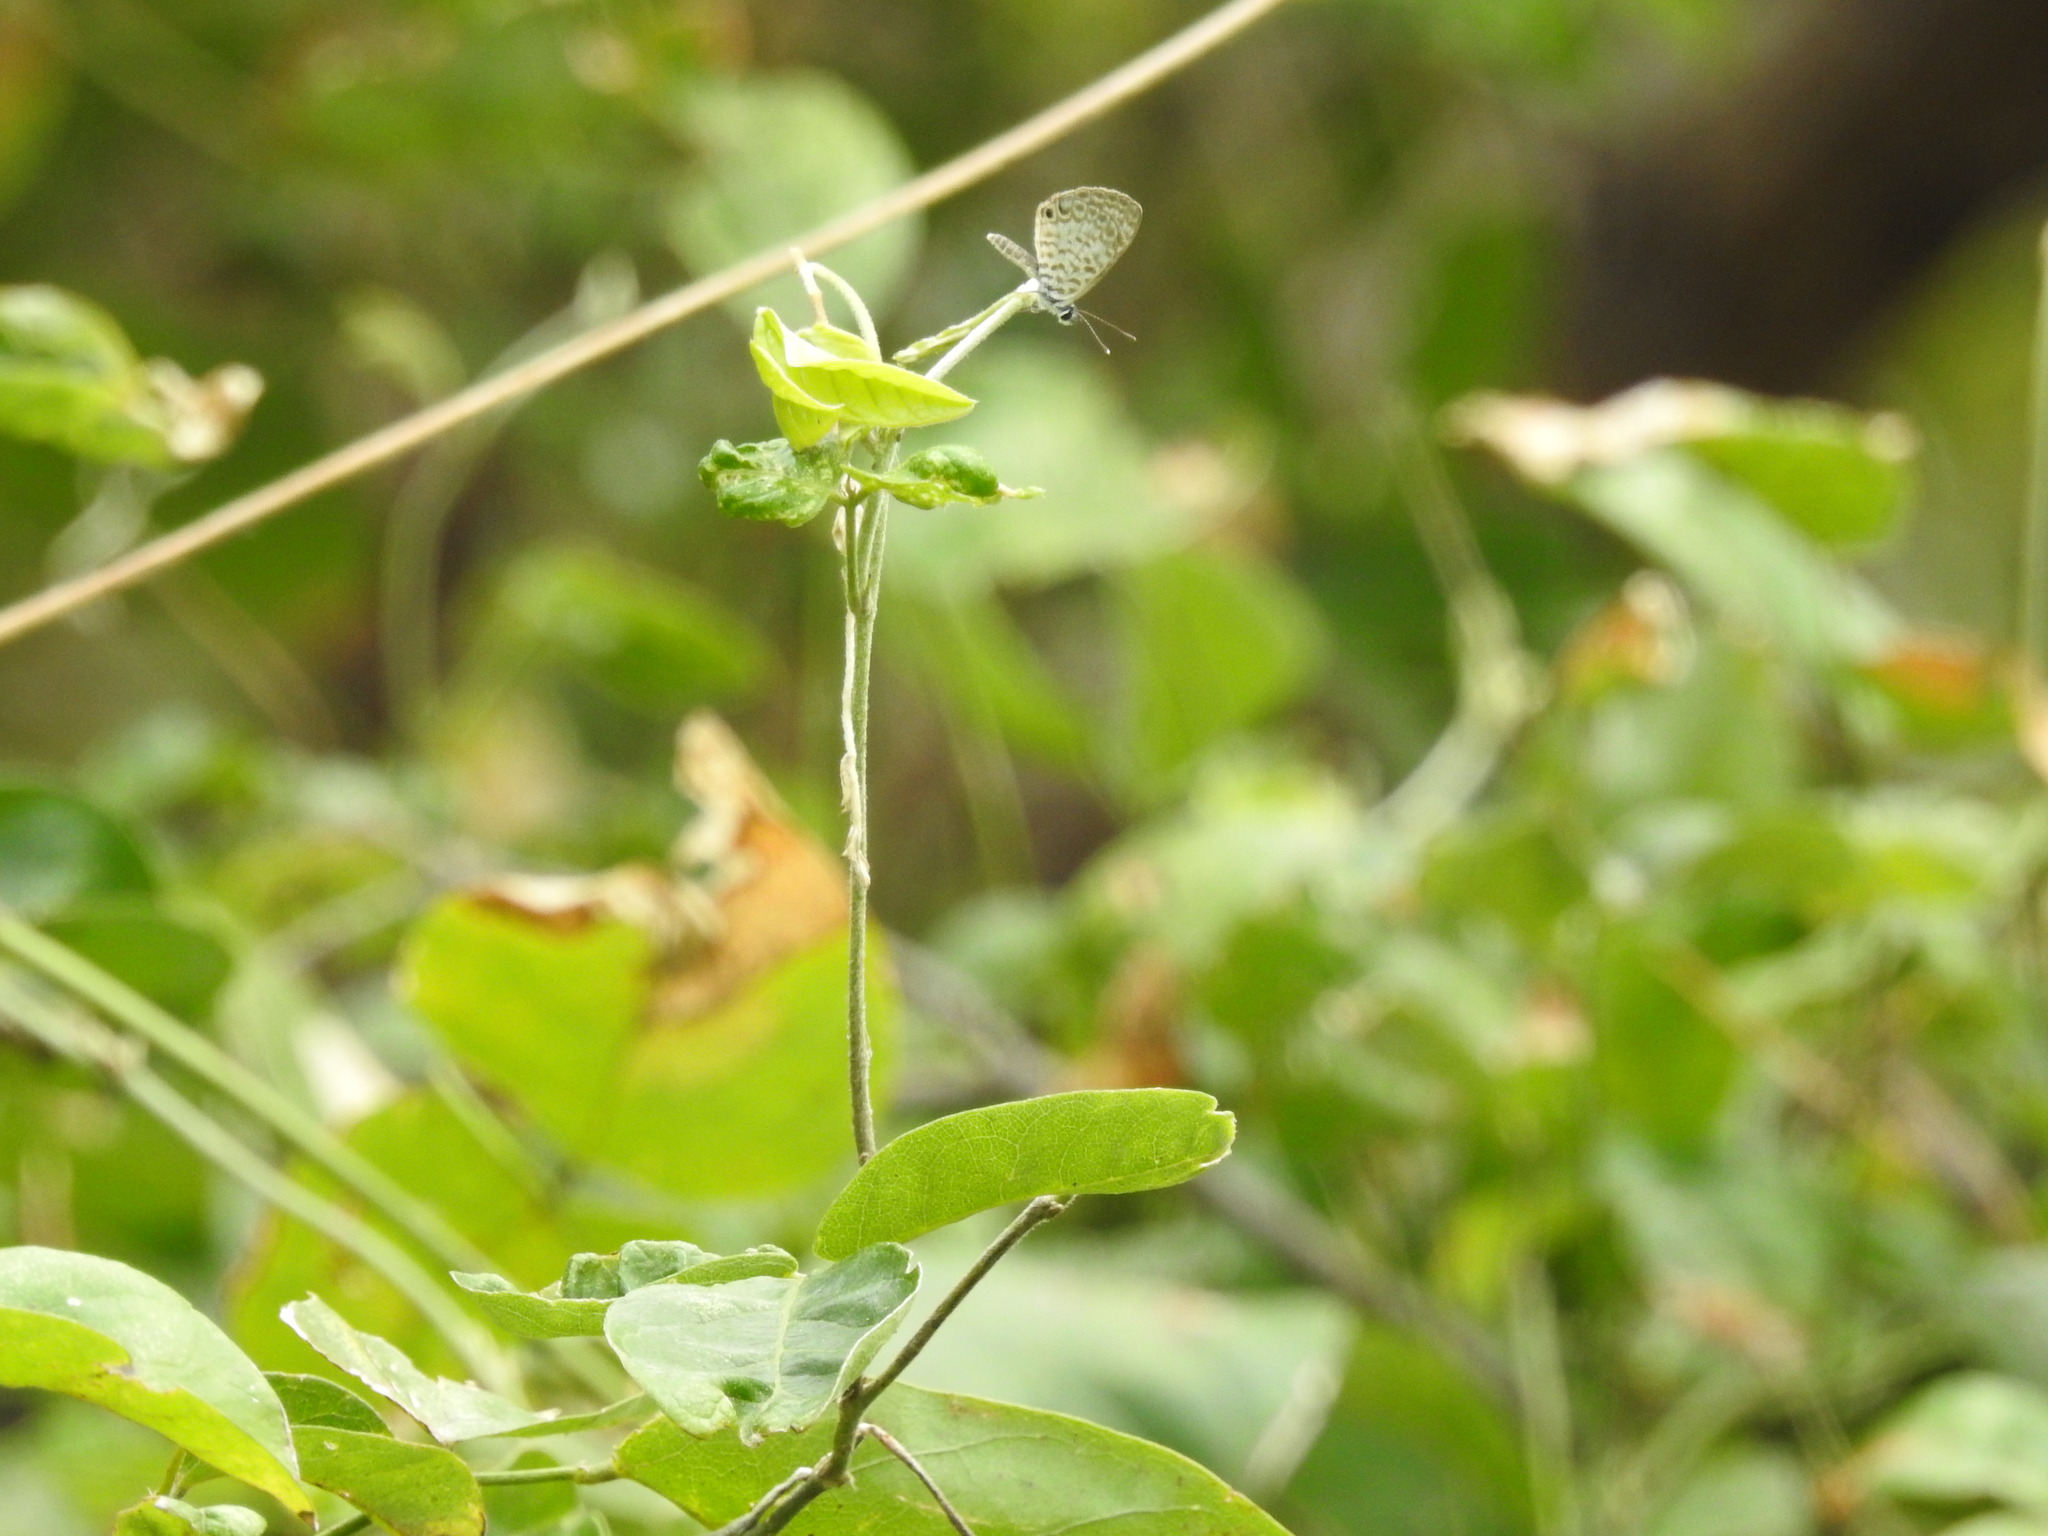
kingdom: Animalia
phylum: Arthropoda
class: Insecta
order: Lepidoptera
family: Lycaenidae
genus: Leptotes
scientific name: Leptotes cassius
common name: Cassius blue
